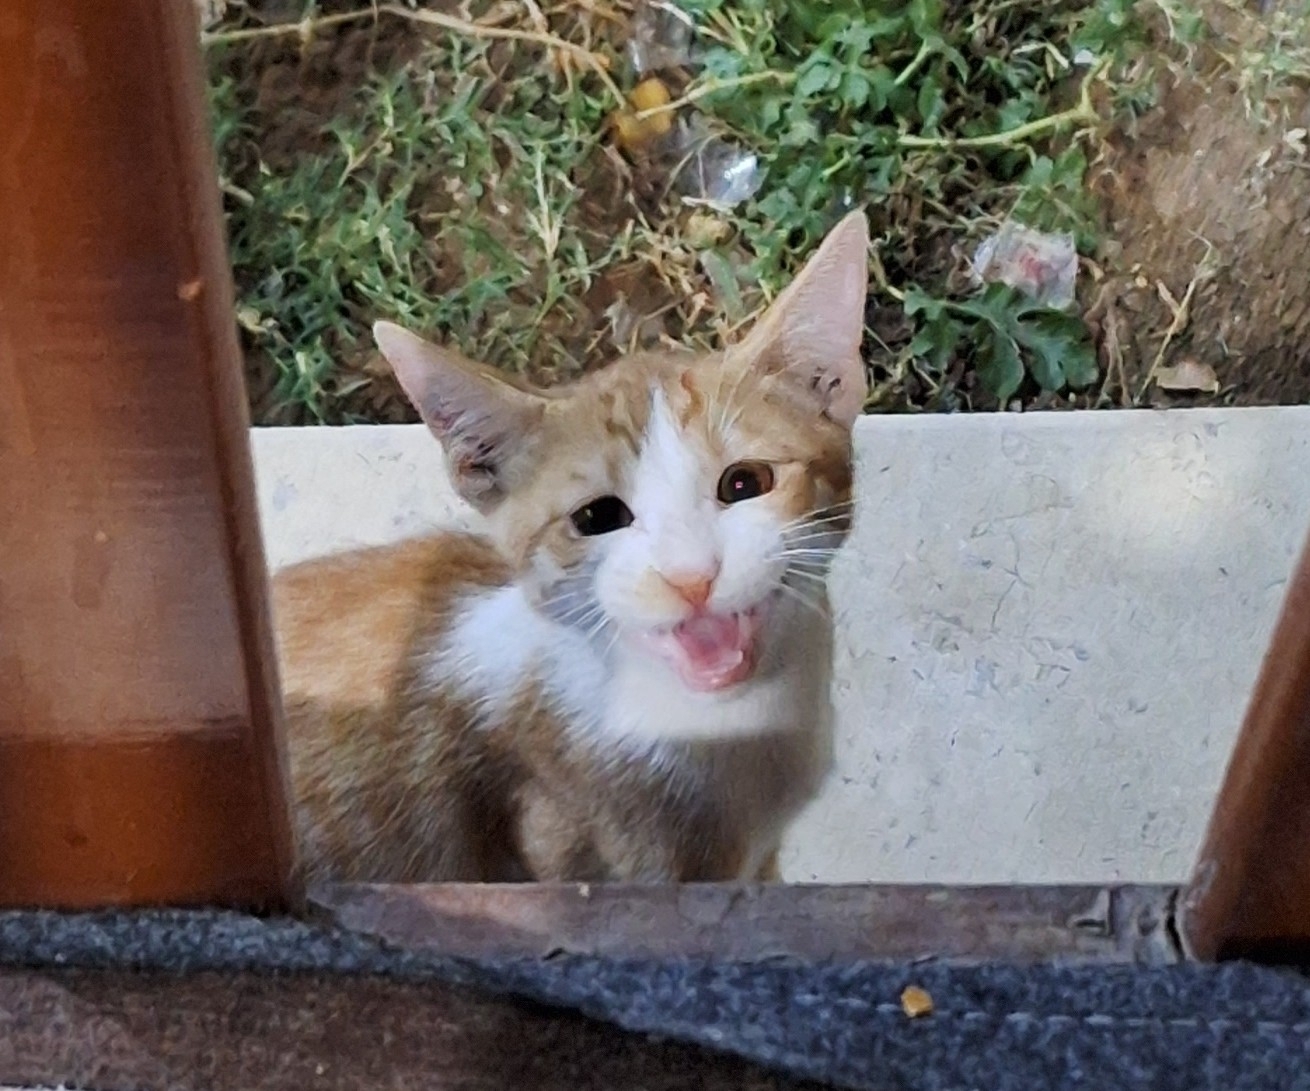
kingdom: Animalia
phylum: Chordata
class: Mammalia
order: Carnivora
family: Felidae
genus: Felis
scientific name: Felis catus
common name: Domestic cat
